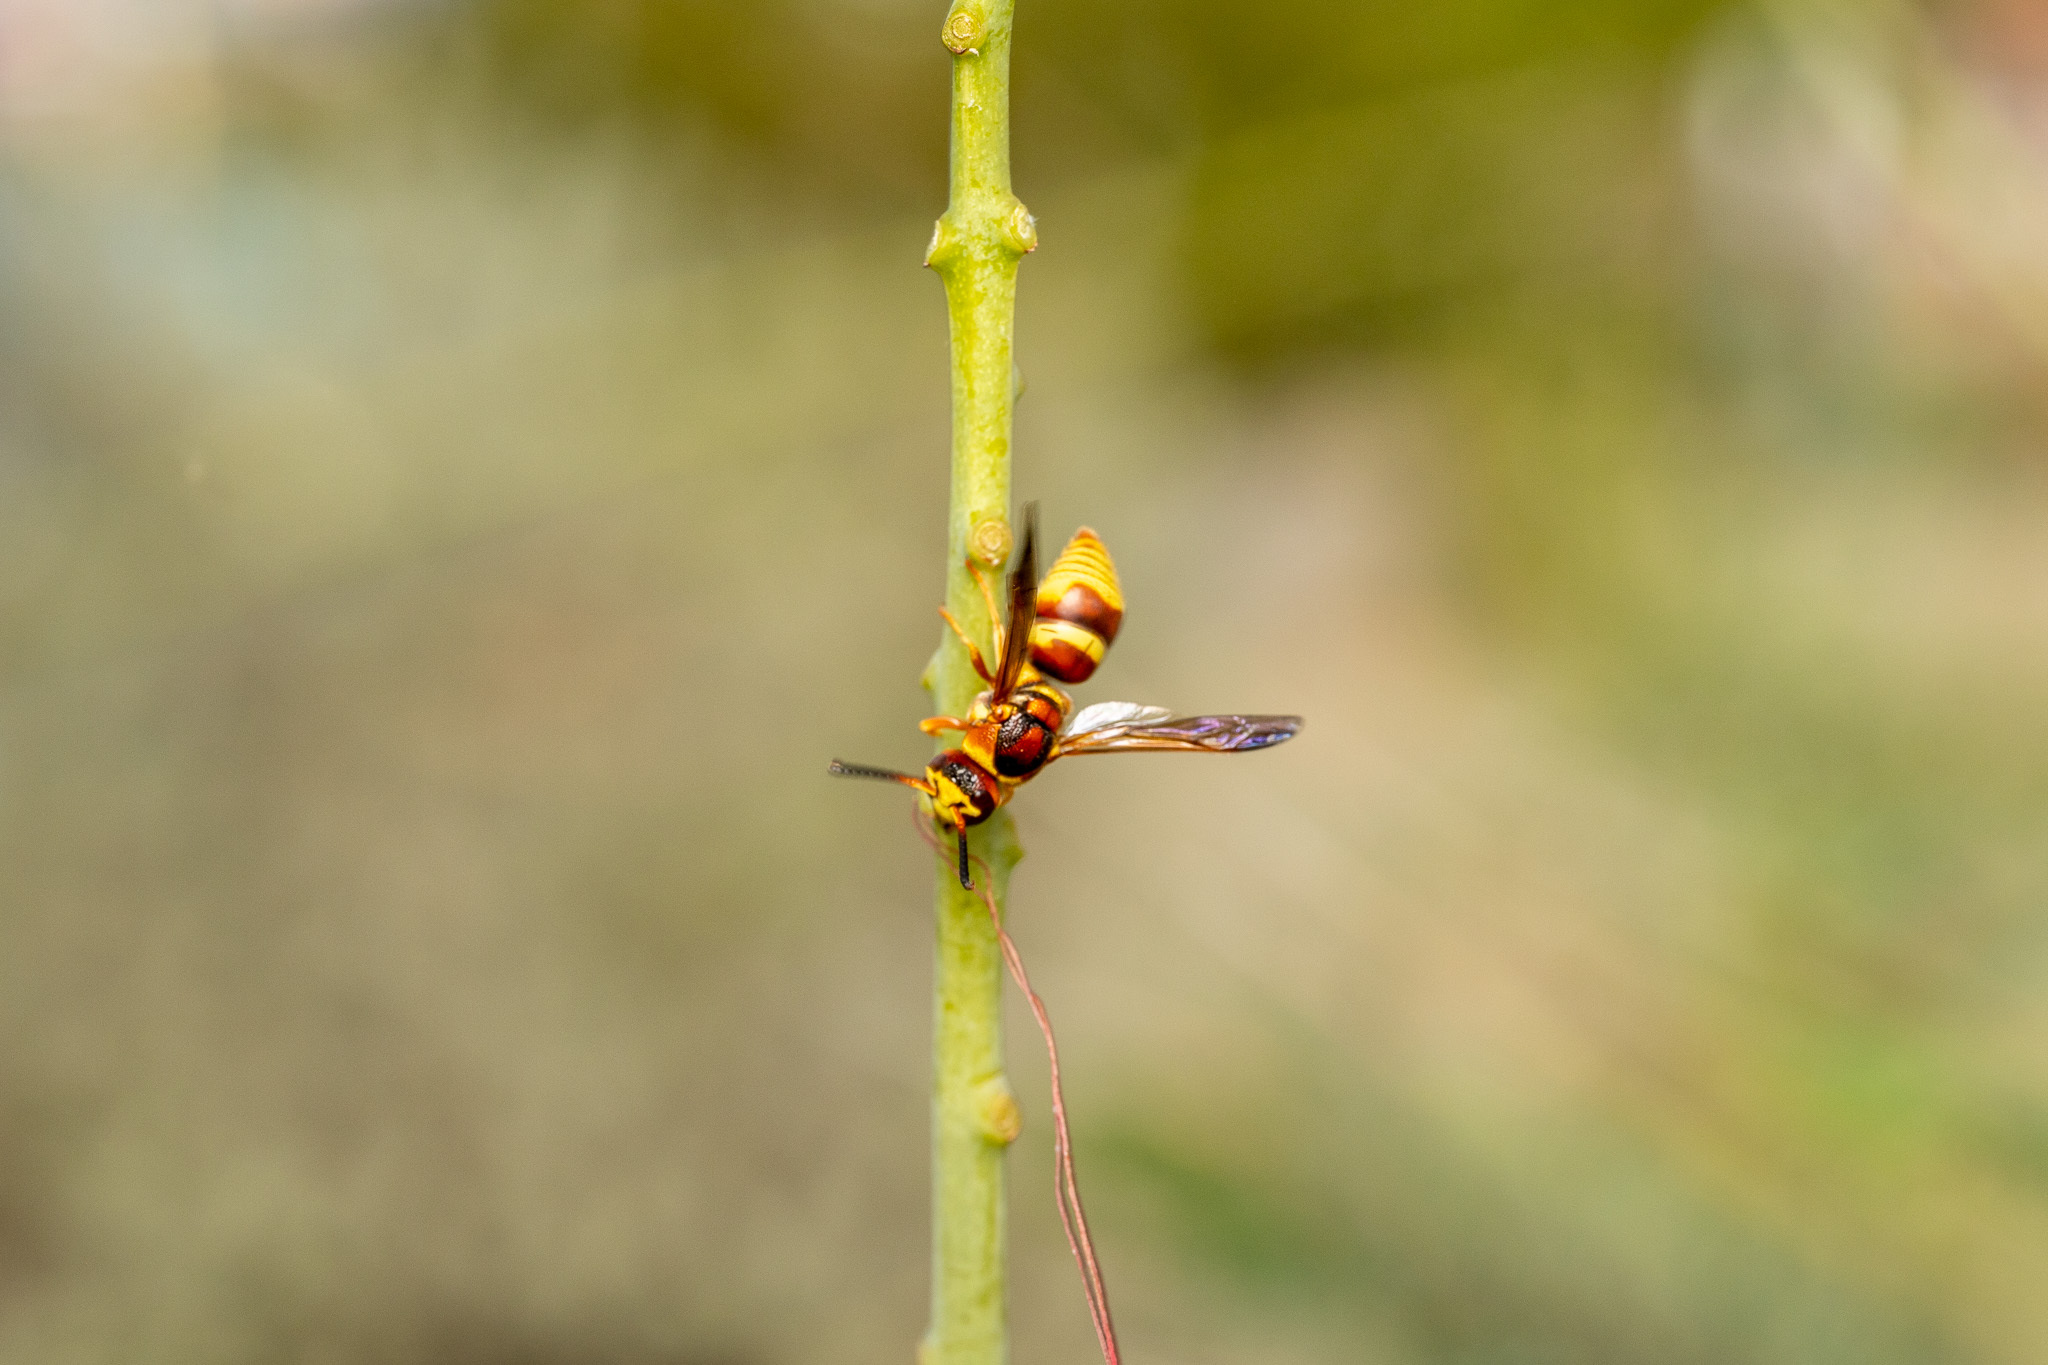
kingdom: Animalia
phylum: Arthropoda
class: Insecta
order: Hymenoptera
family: Eumenidae
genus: Euodynerus
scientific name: Euodynerus pratensis
